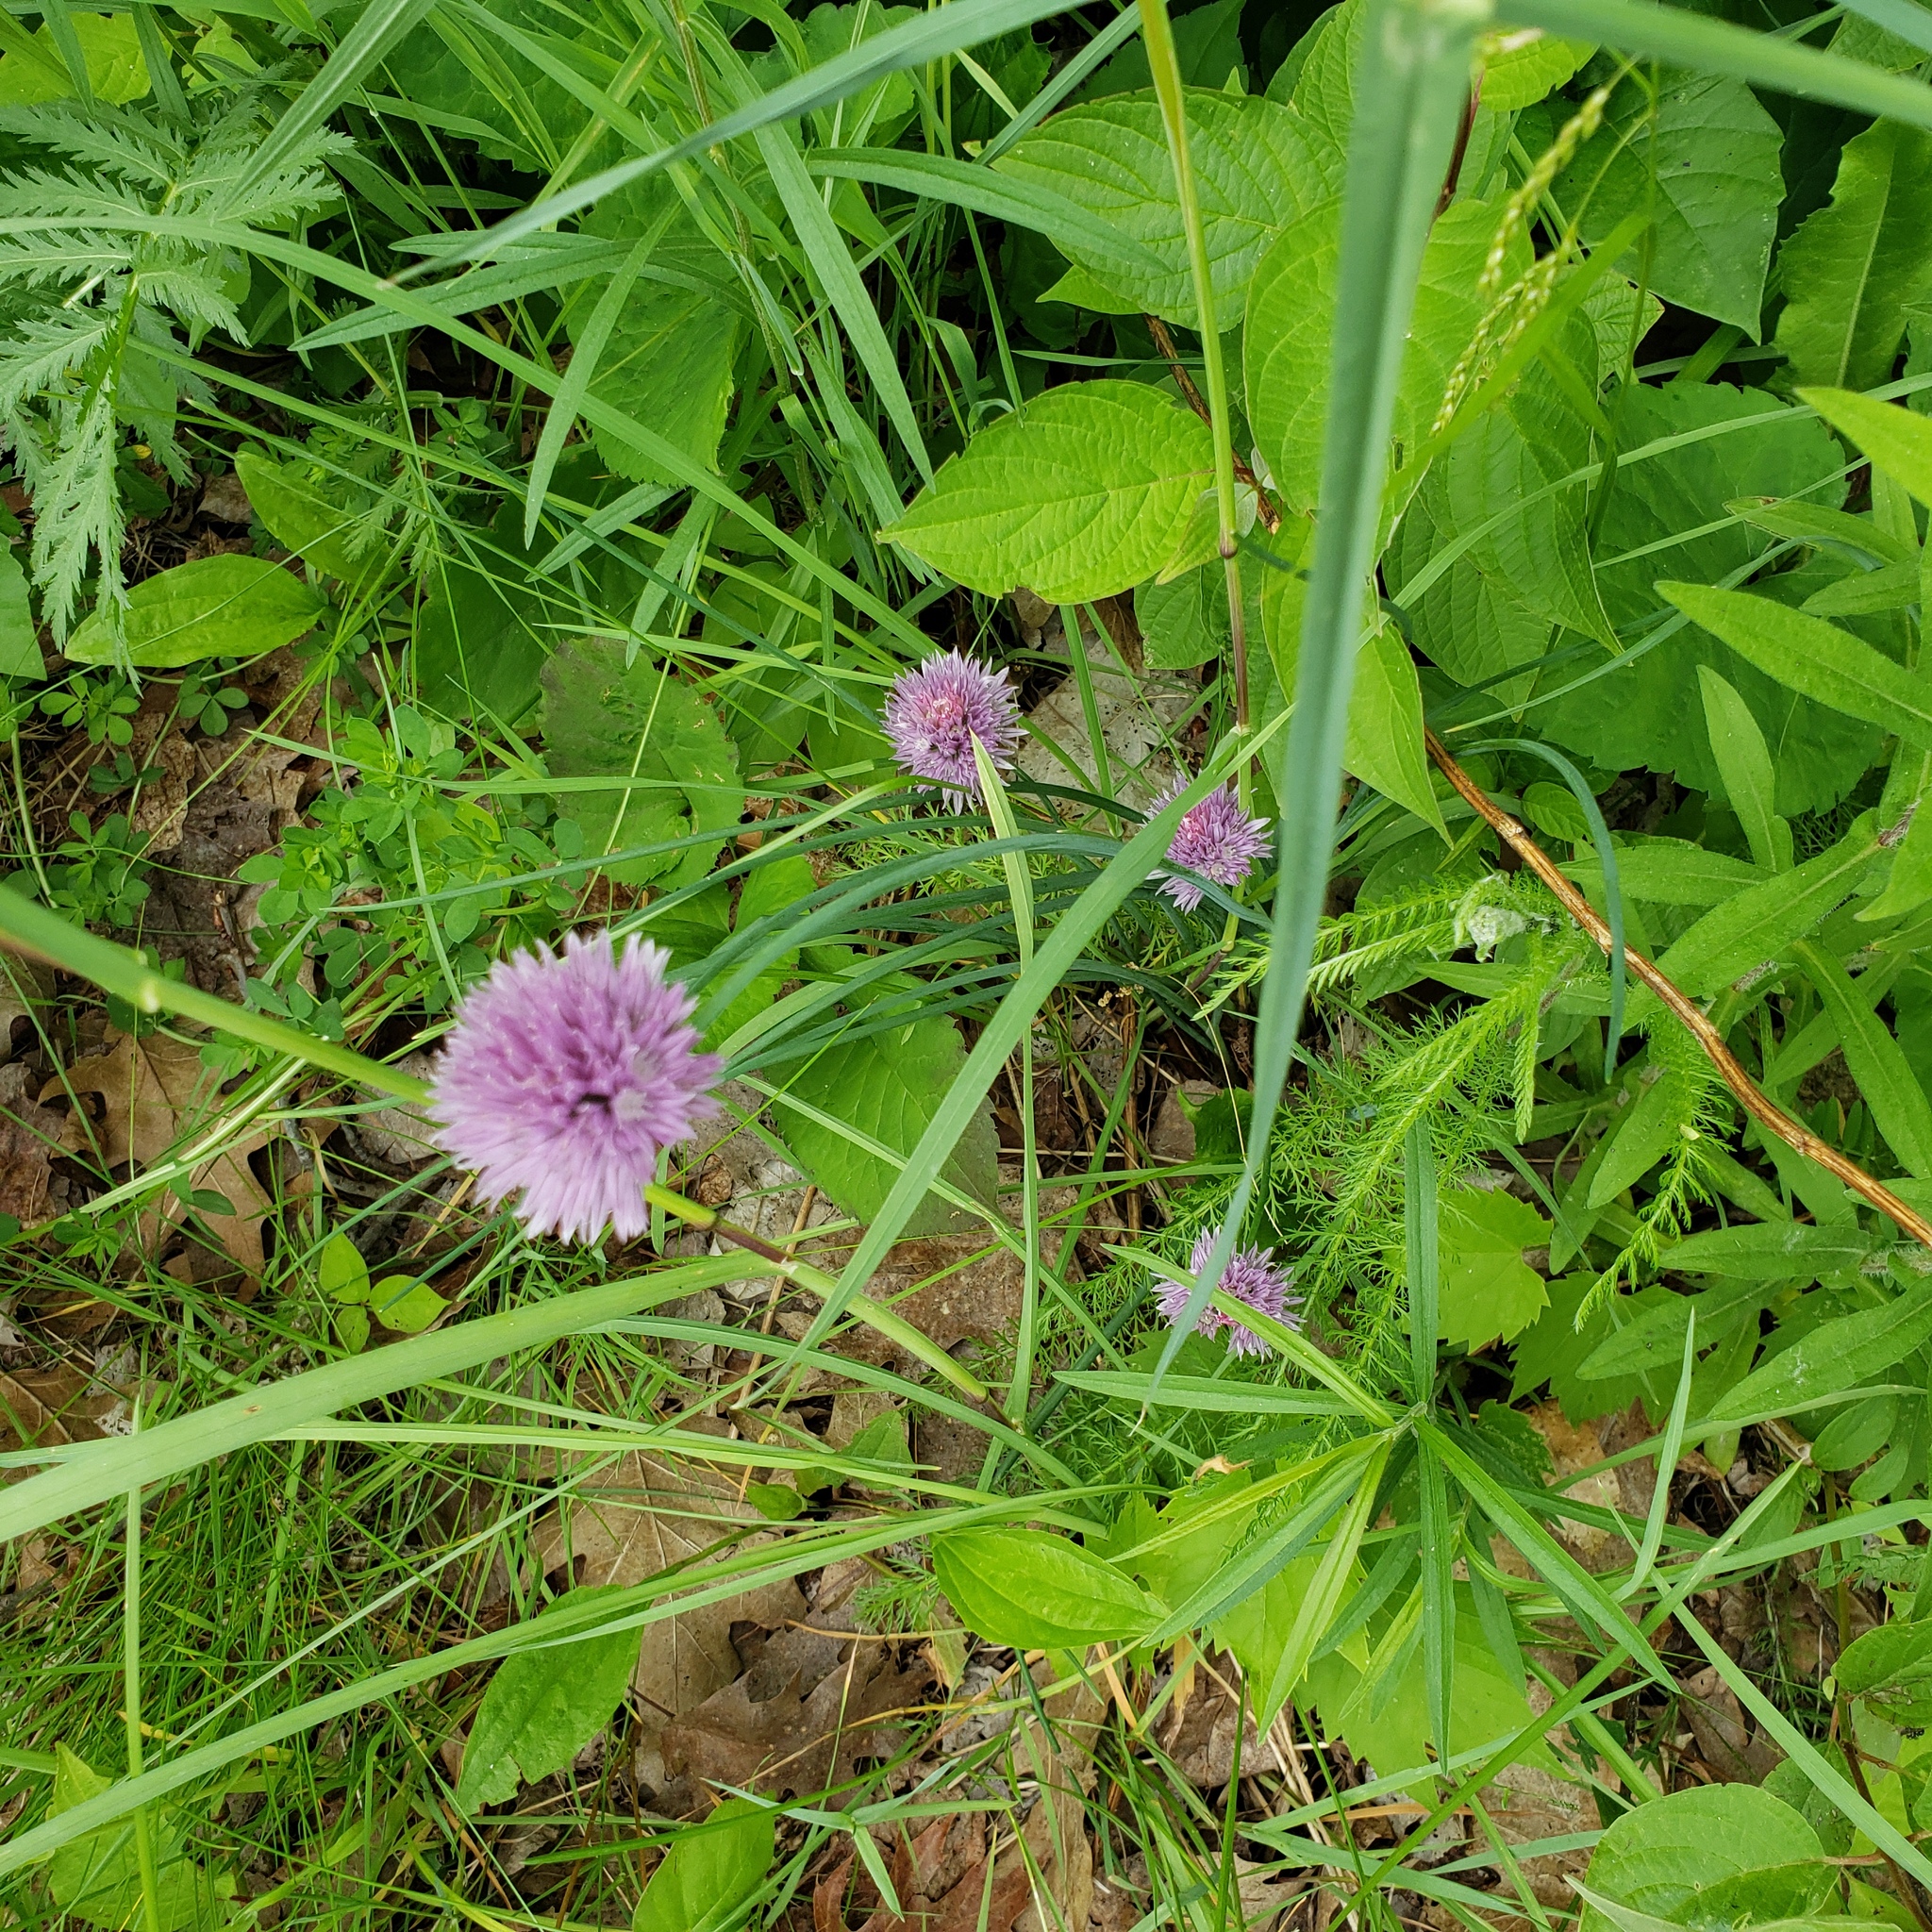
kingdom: Plantae
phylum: Tracheophyta
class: Liliopsida
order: Asparagales
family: Amaryllidaceae
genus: Allium
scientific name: Allium schoenoprasum
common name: Chives
